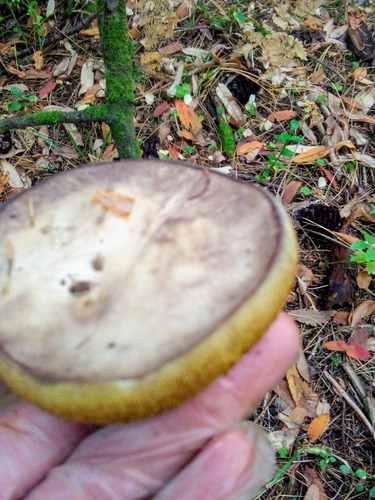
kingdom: Fungi
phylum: Basidiomycota
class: Agaricomycetes
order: Boletales
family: Suillaceae
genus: Suillus
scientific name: Suillus placidus
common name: Slippery white bolete
